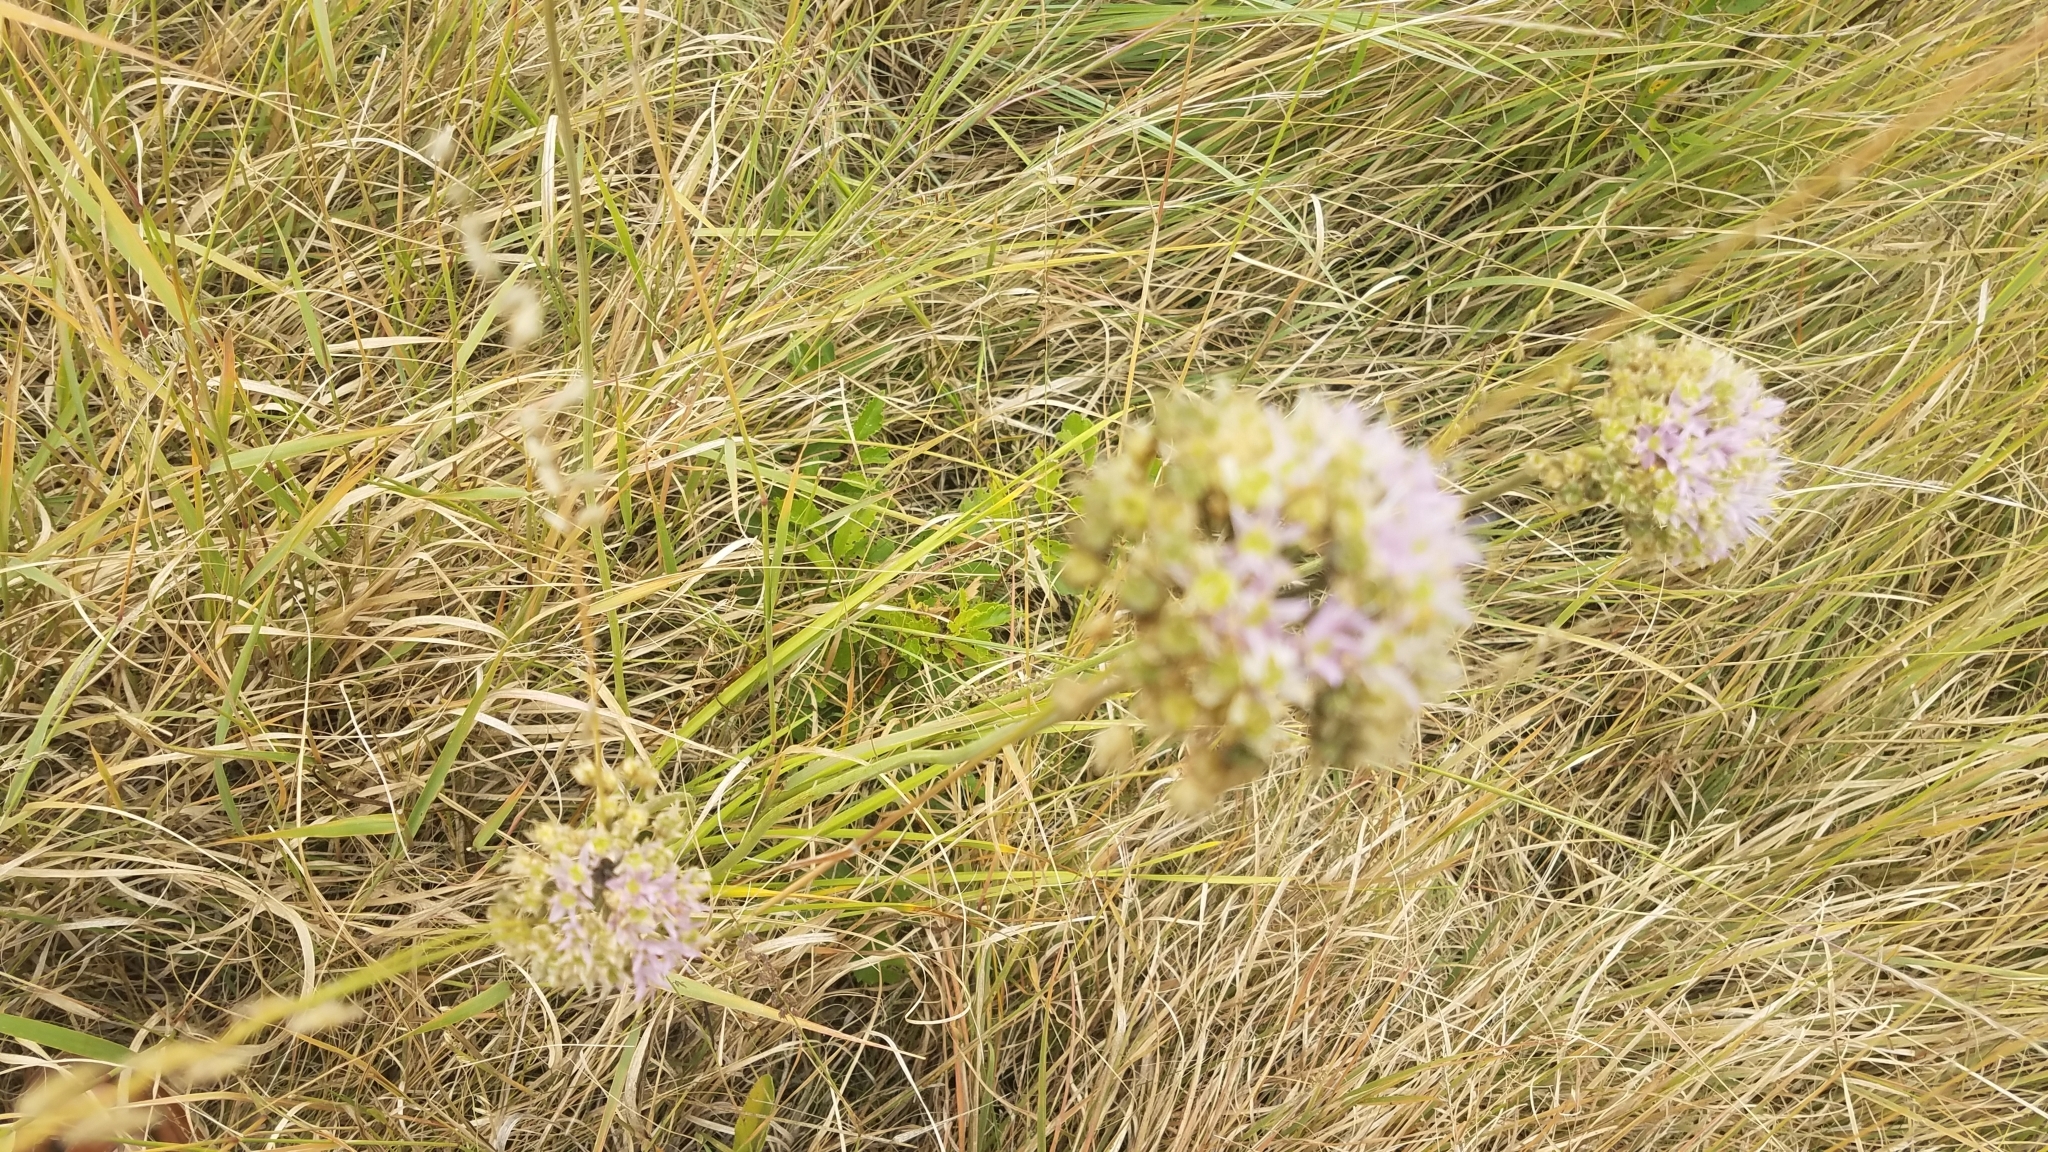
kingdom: Plantae
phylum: Tracheophyta
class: Liliopsida
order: Asparagales
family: Amaryllidaceae
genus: Allium
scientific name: Allium stellatum
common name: Autumn onion
